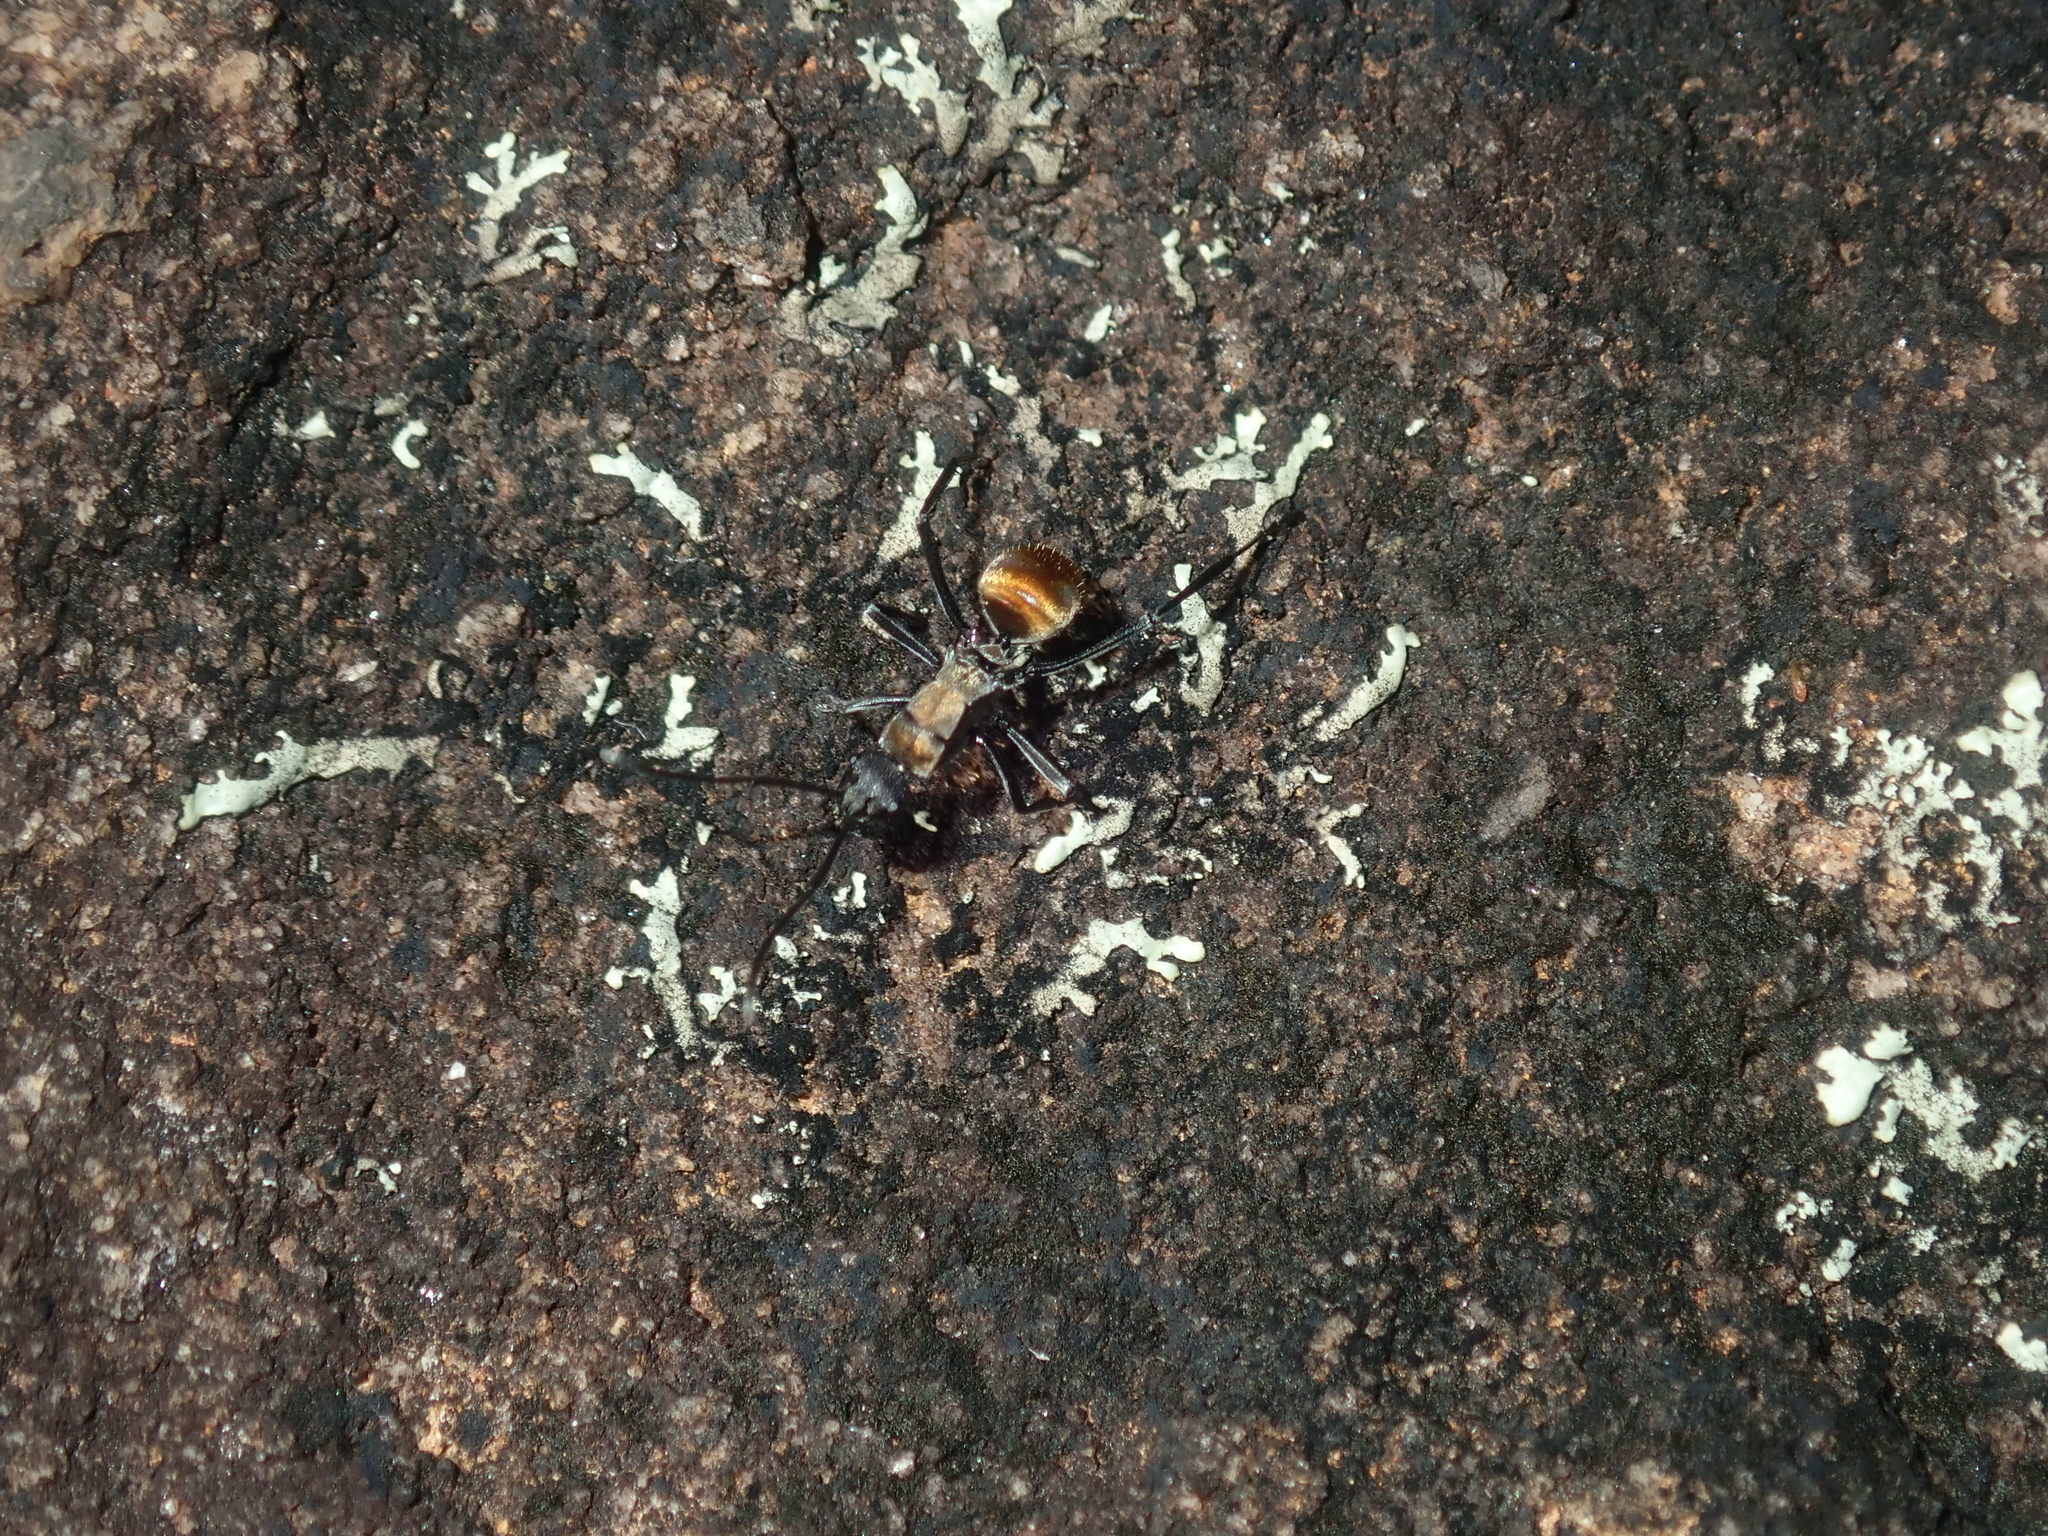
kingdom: Animalia
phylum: Arthropoda
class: Insecta
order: Hymenoptera
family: Formicidae
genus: Polyrhachis
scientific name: Polyrhachis ammon
